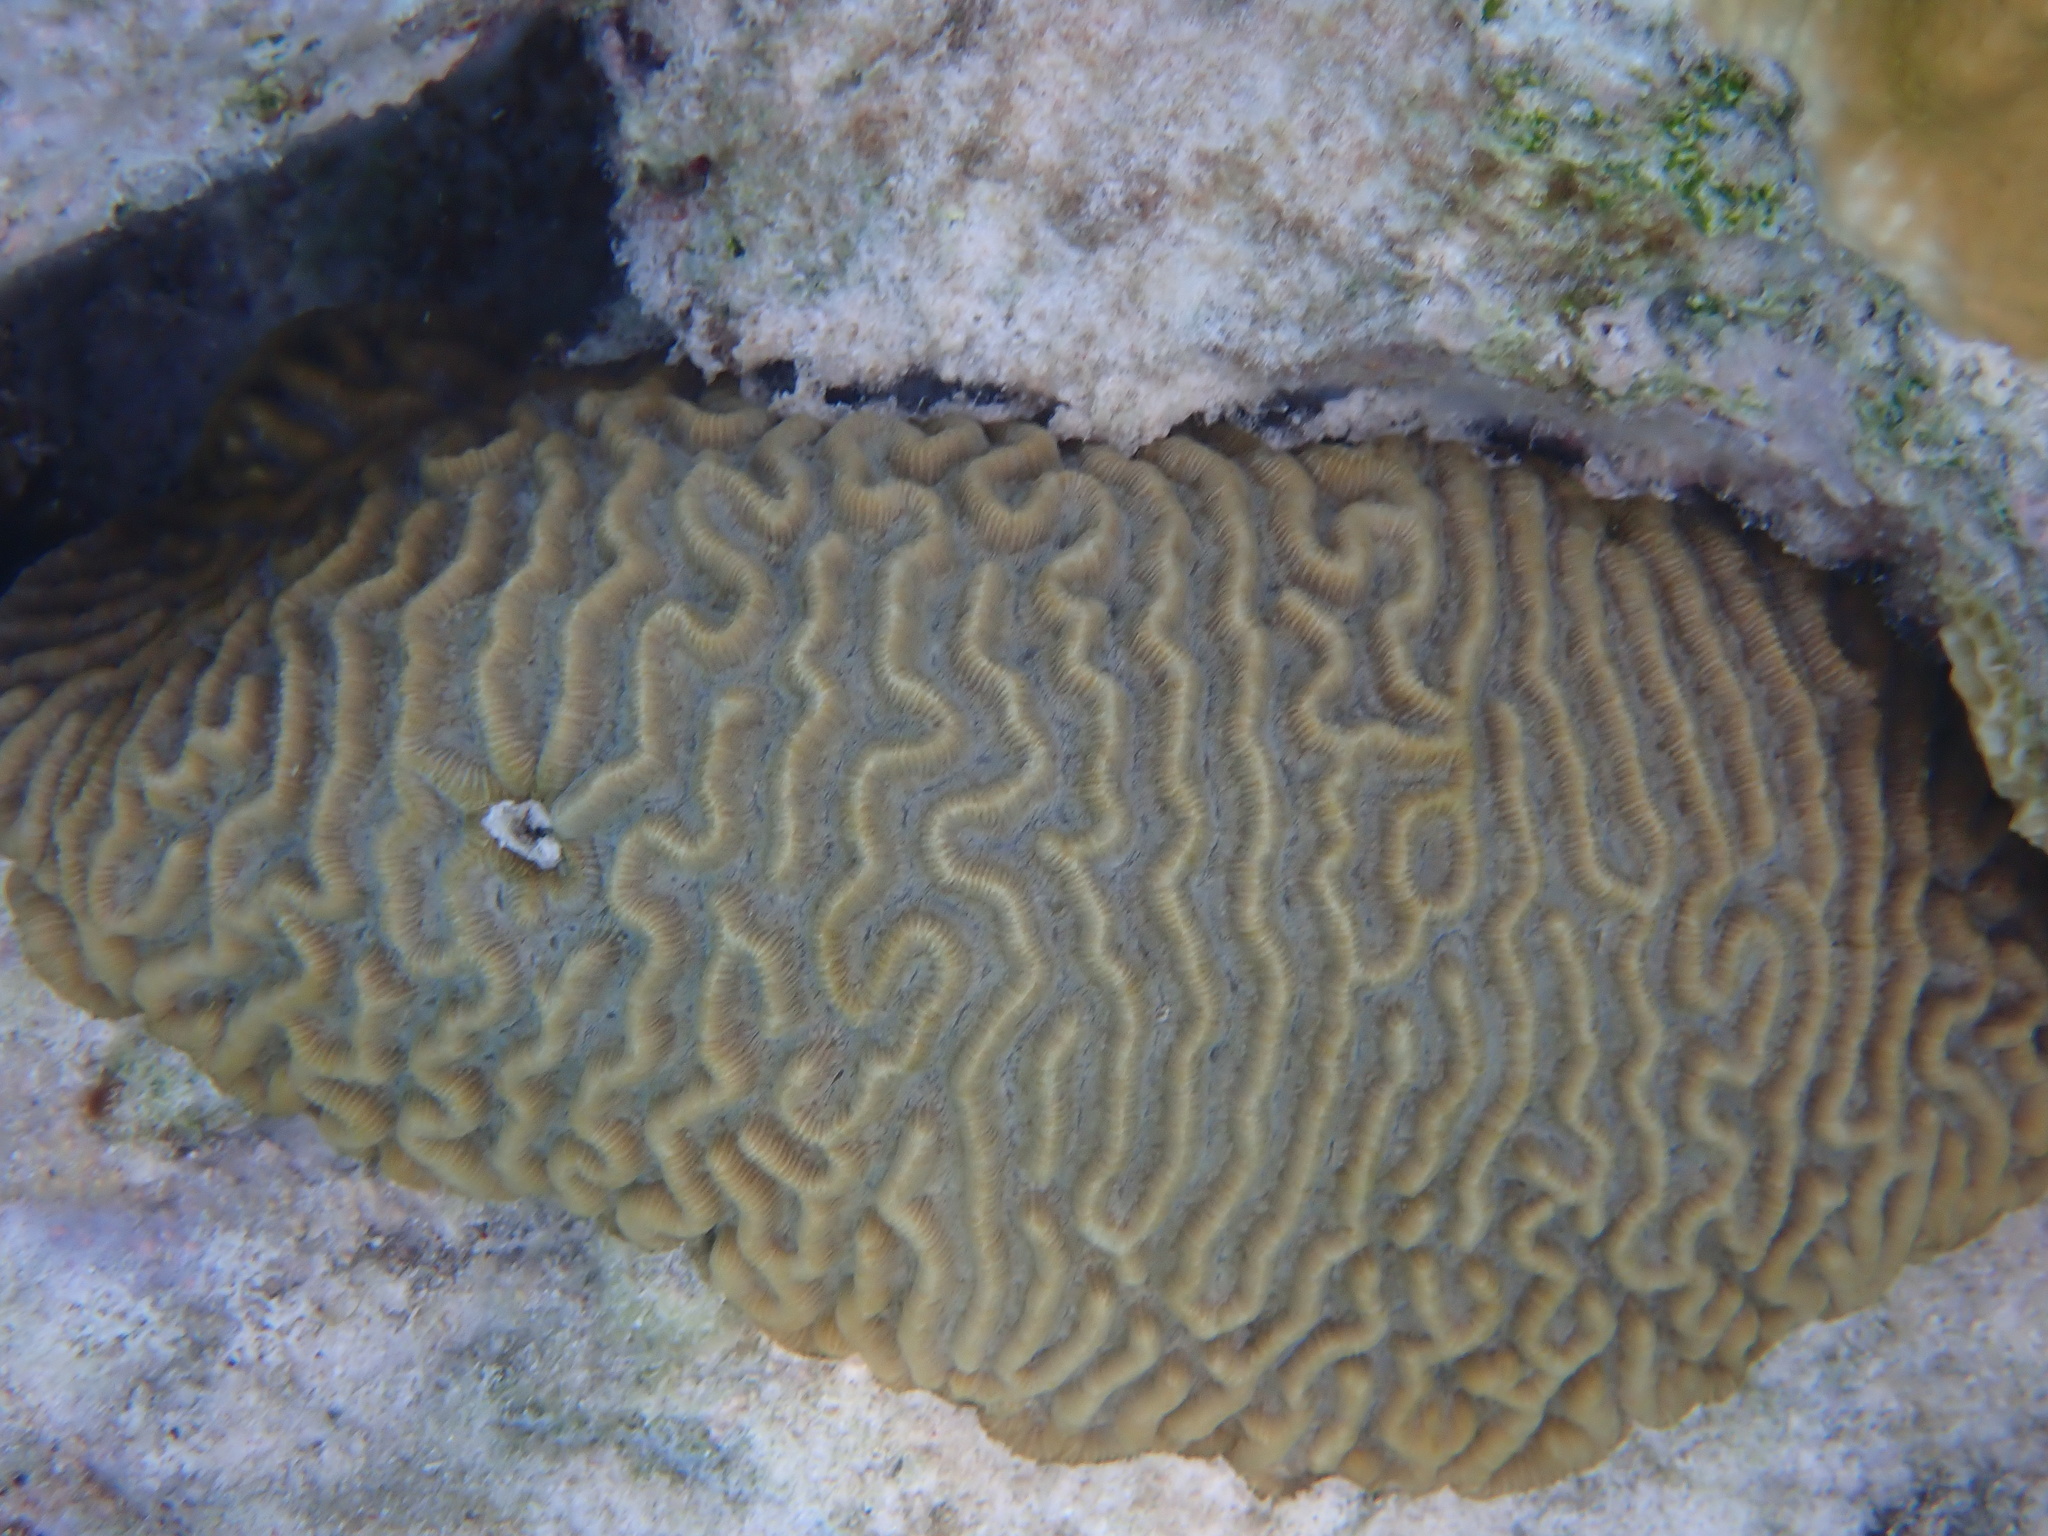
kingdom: Animalia
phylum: Cnidaria
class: Anthozoa
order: Scleractinia
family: Faviidae
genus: Pseudodiploria
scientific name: Pseudodiploria strigosa
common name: Symmetrical brain coral
